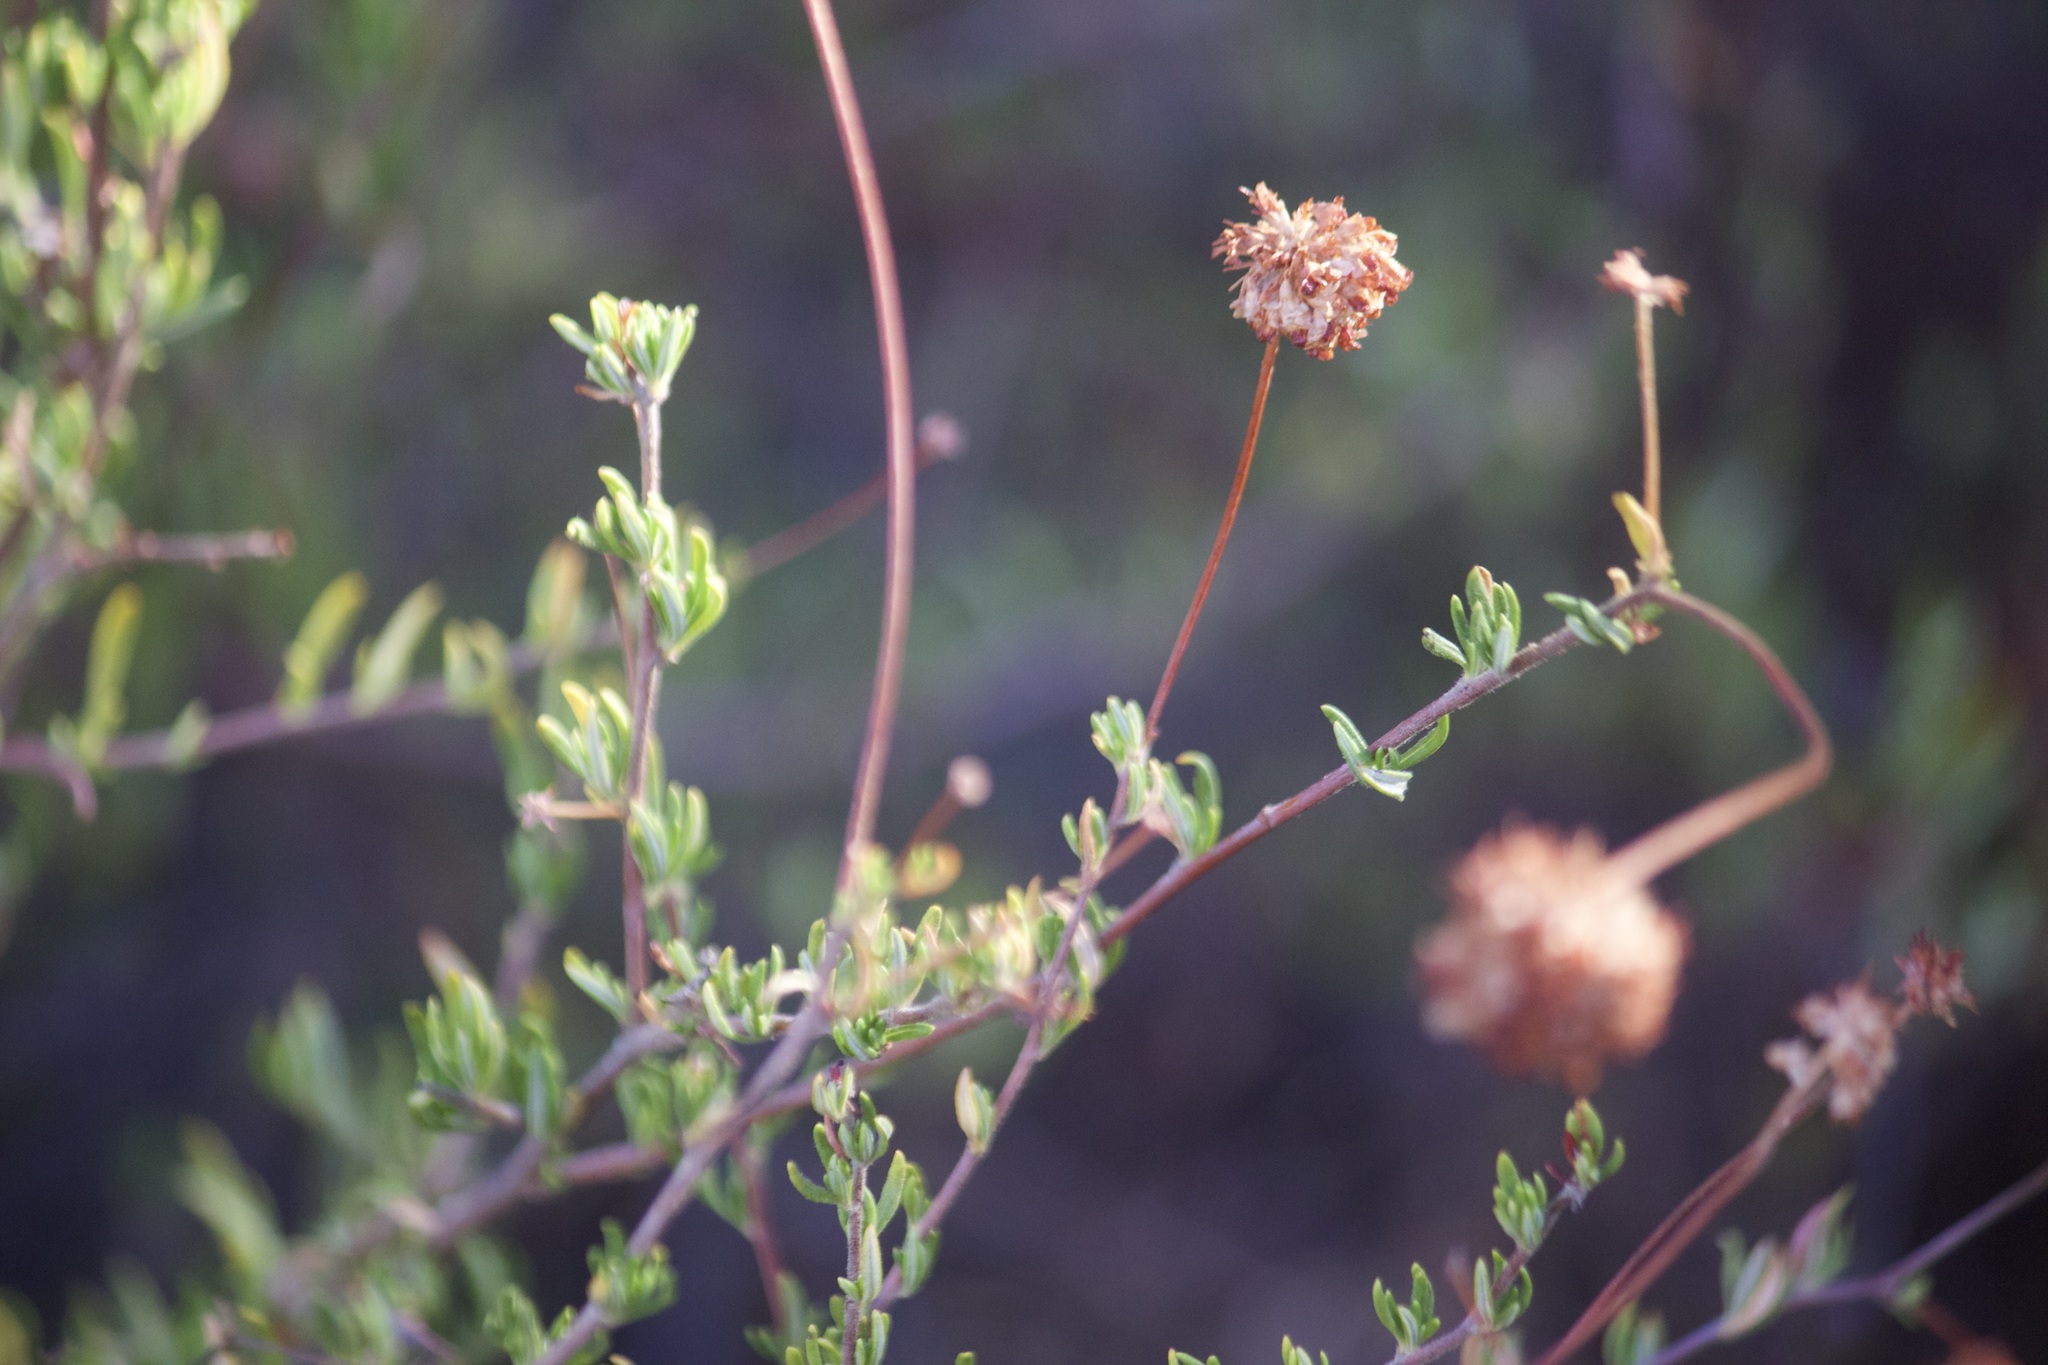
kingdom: Plantae
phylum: Tracheophyta
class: Magnoliopsida
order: Caryophyllales
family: Polygonaceae
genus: Eriogonum
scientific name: Eriogonum fasciculatum
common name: California wild buckwheat
